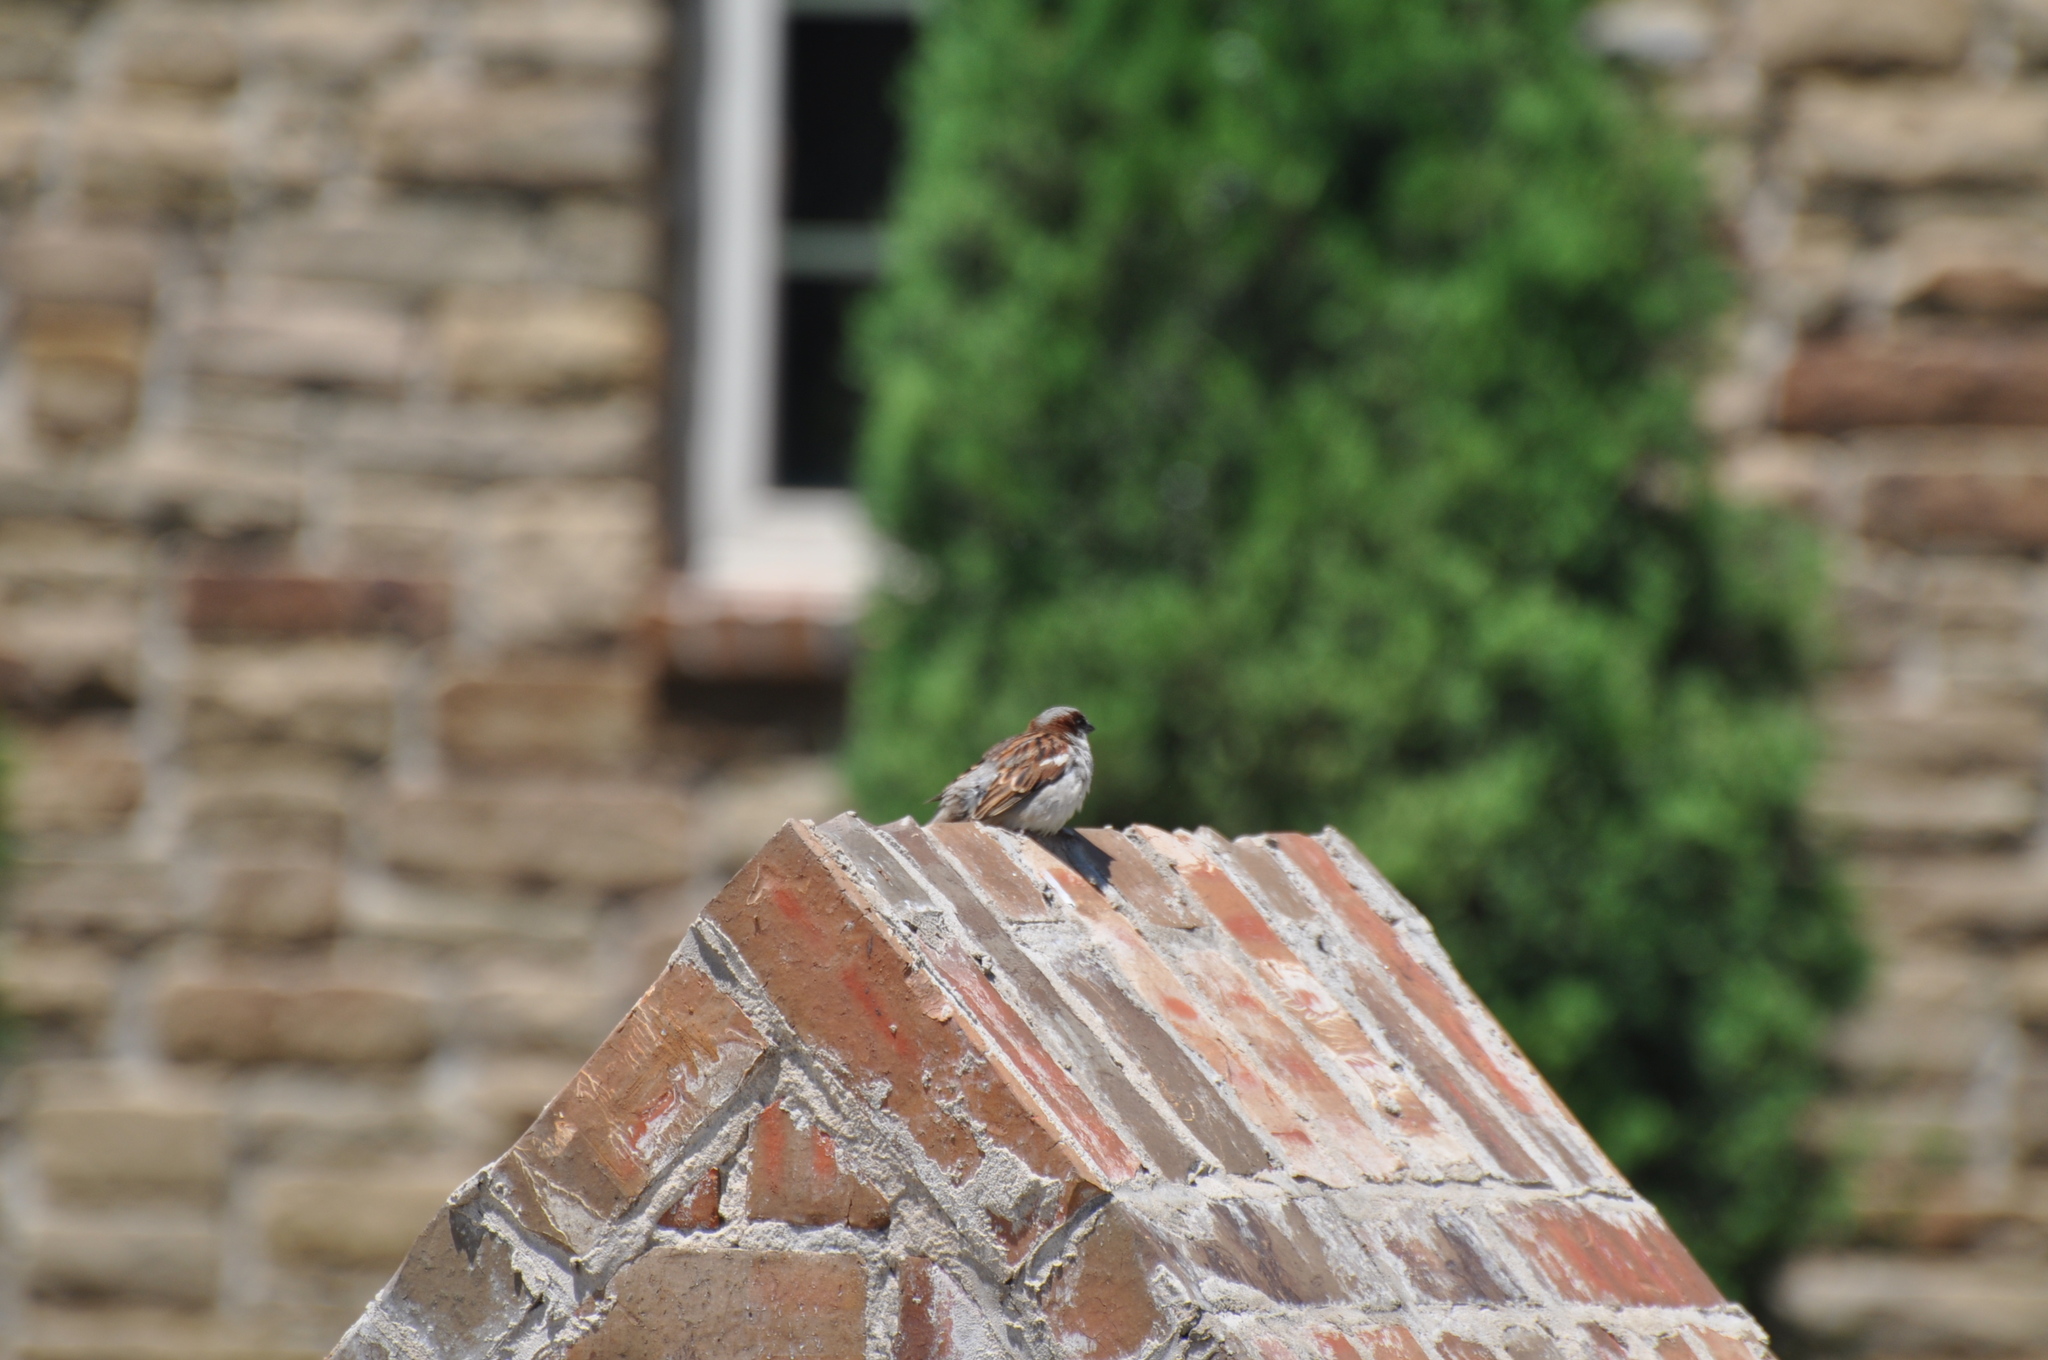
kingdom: Animalia
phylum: Chordata
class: Aves
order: Passeriformes
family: Passeridae
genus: Passer
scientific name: Passer domesticus
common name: House sparrow
